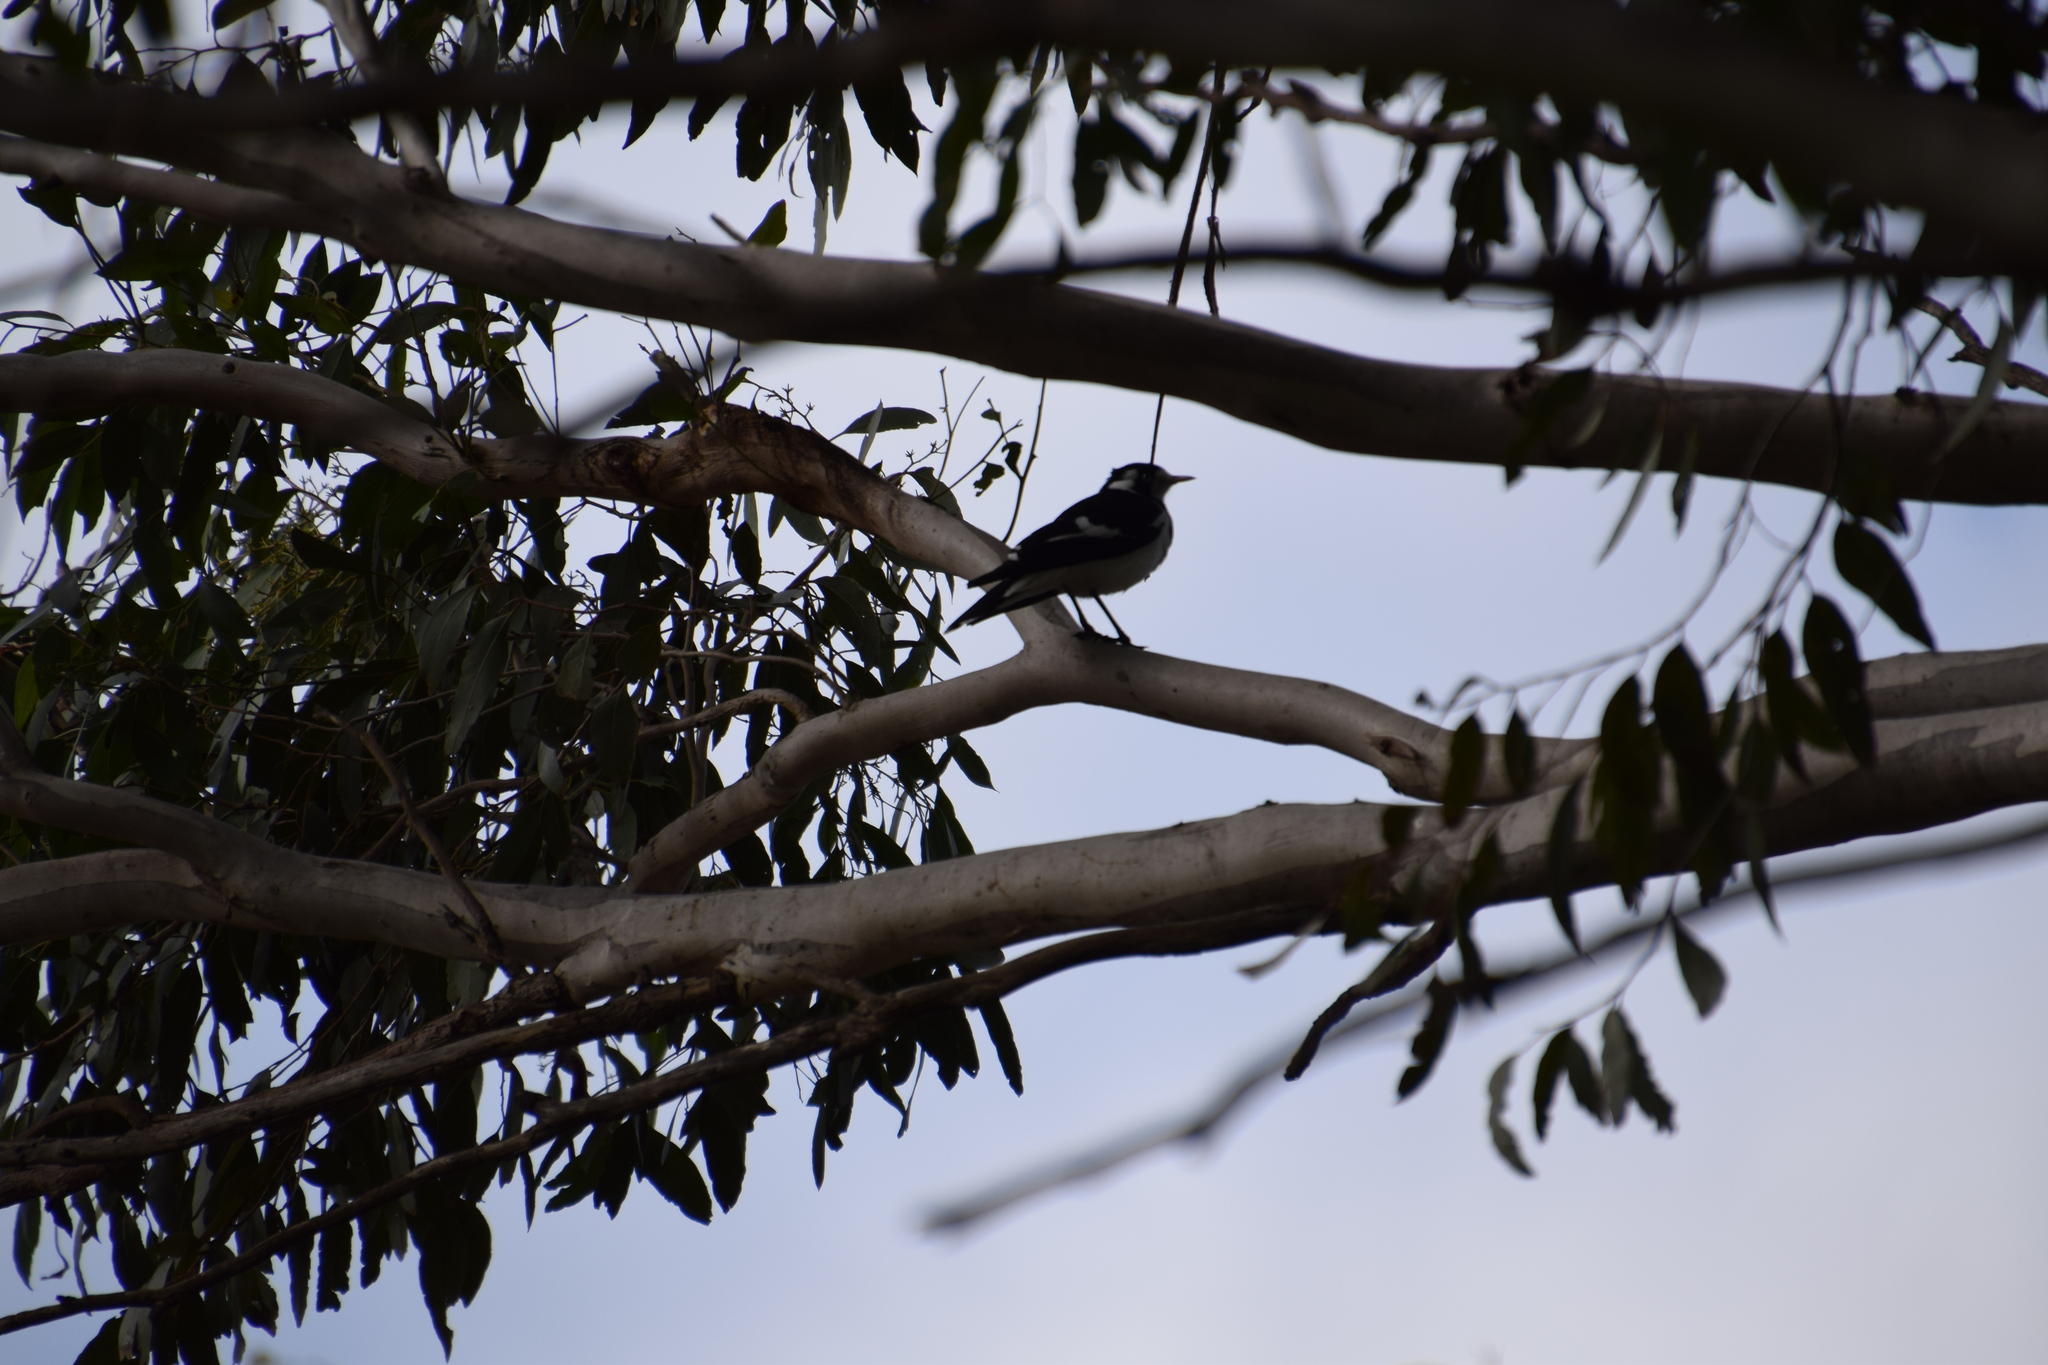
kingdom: Animalia
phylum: Chordata
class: Aves
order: Passeriformes
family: Monarchidae
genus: Grallina
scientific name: Grallina cyanoleuca
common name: Magpie-lark
